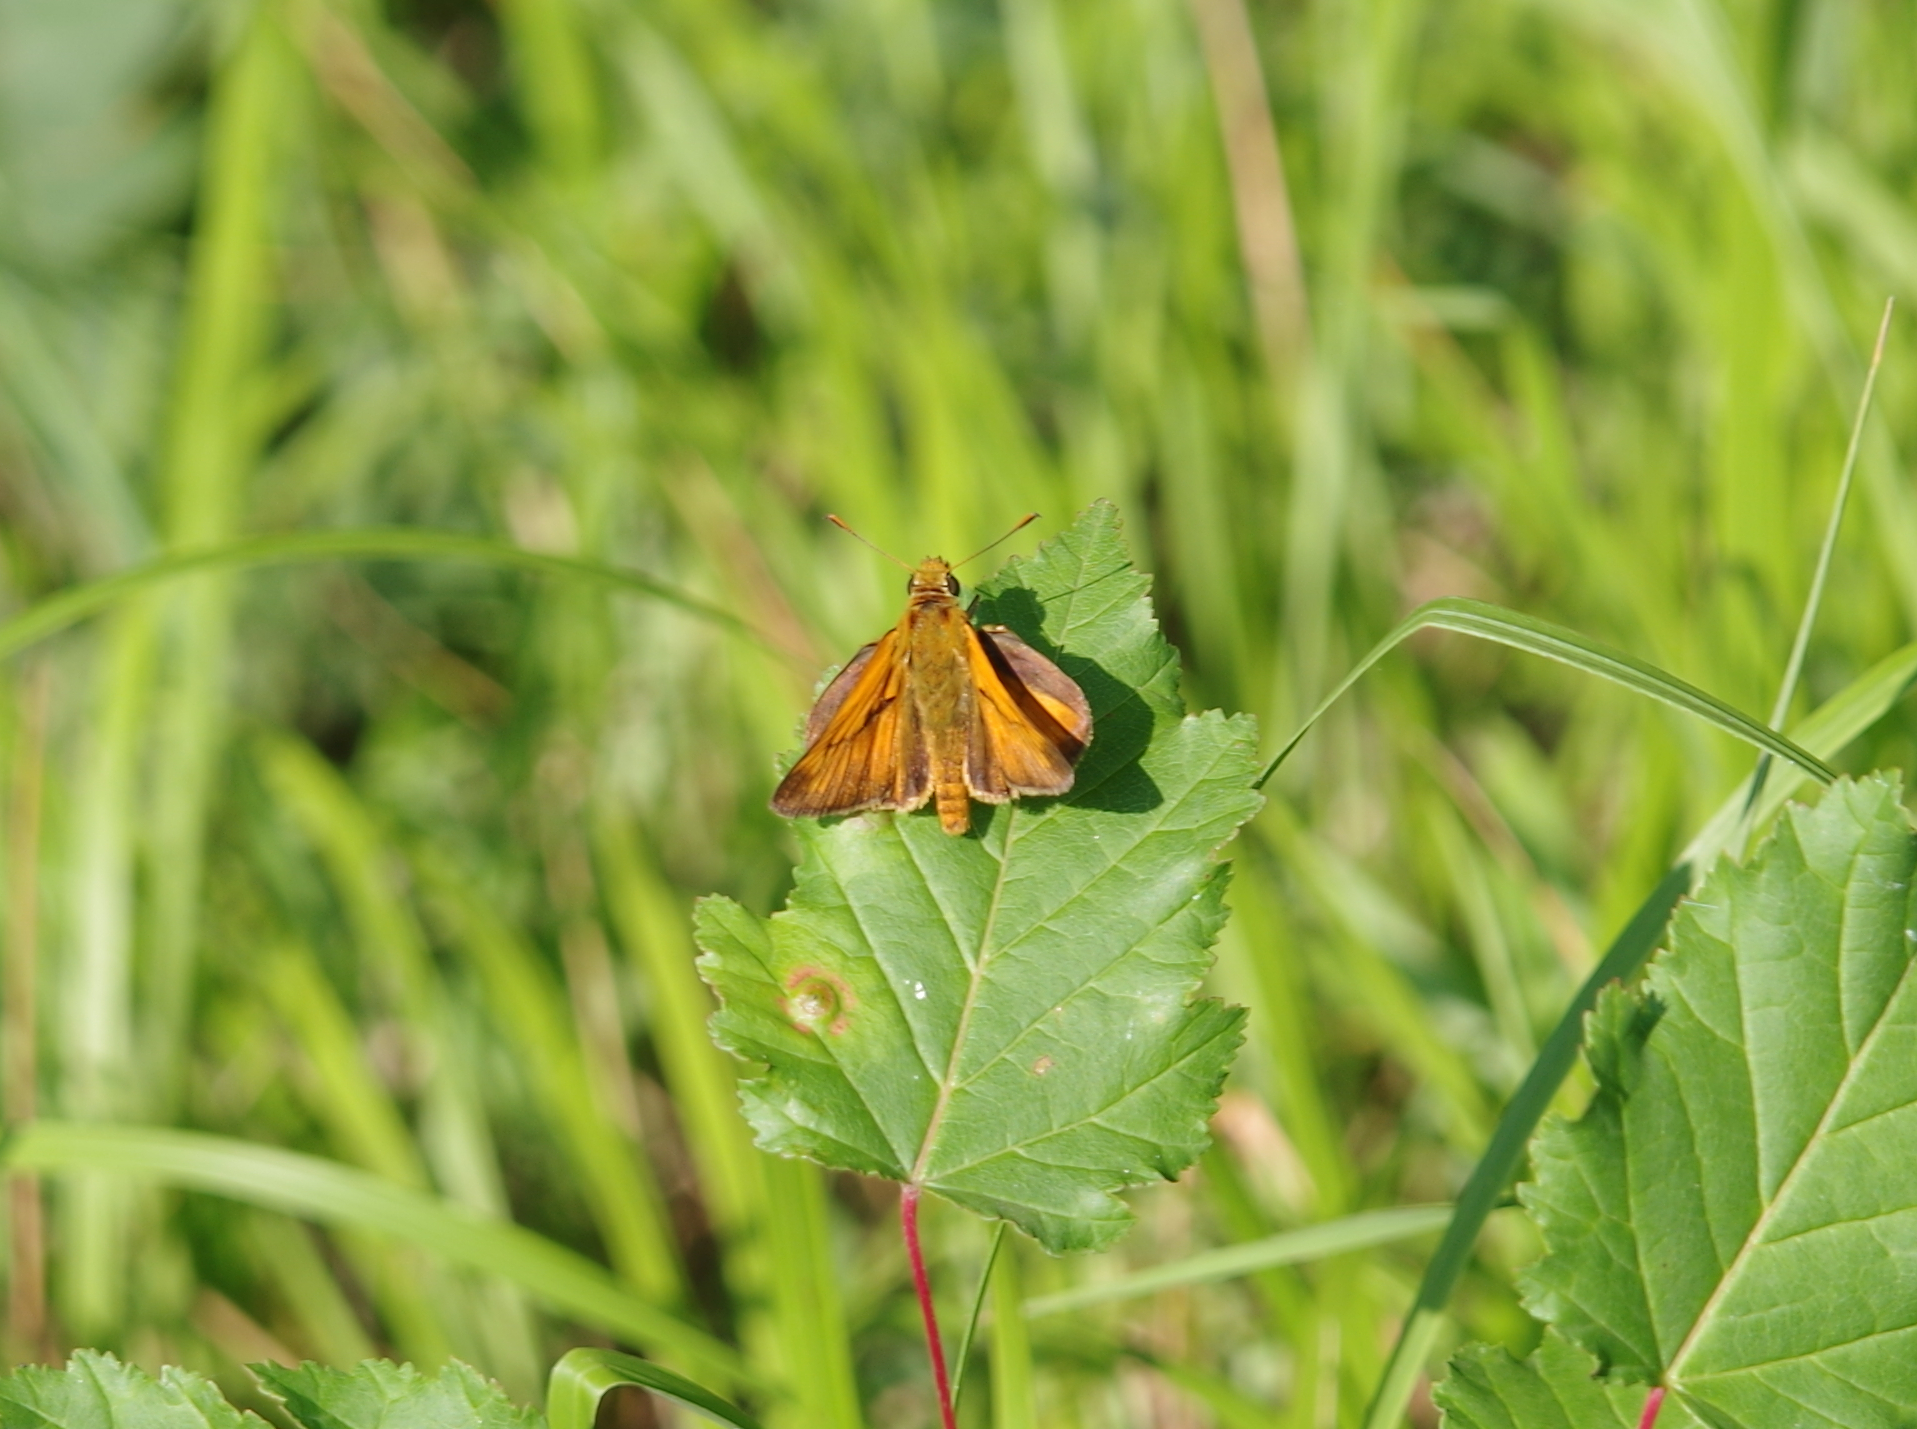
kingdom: Animalia
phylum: Arthropoda
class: Insecta
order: Lepidoptera
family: Hesperiidae
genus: Ochlodes
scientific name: Ochlodes venata
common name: Large skipper
